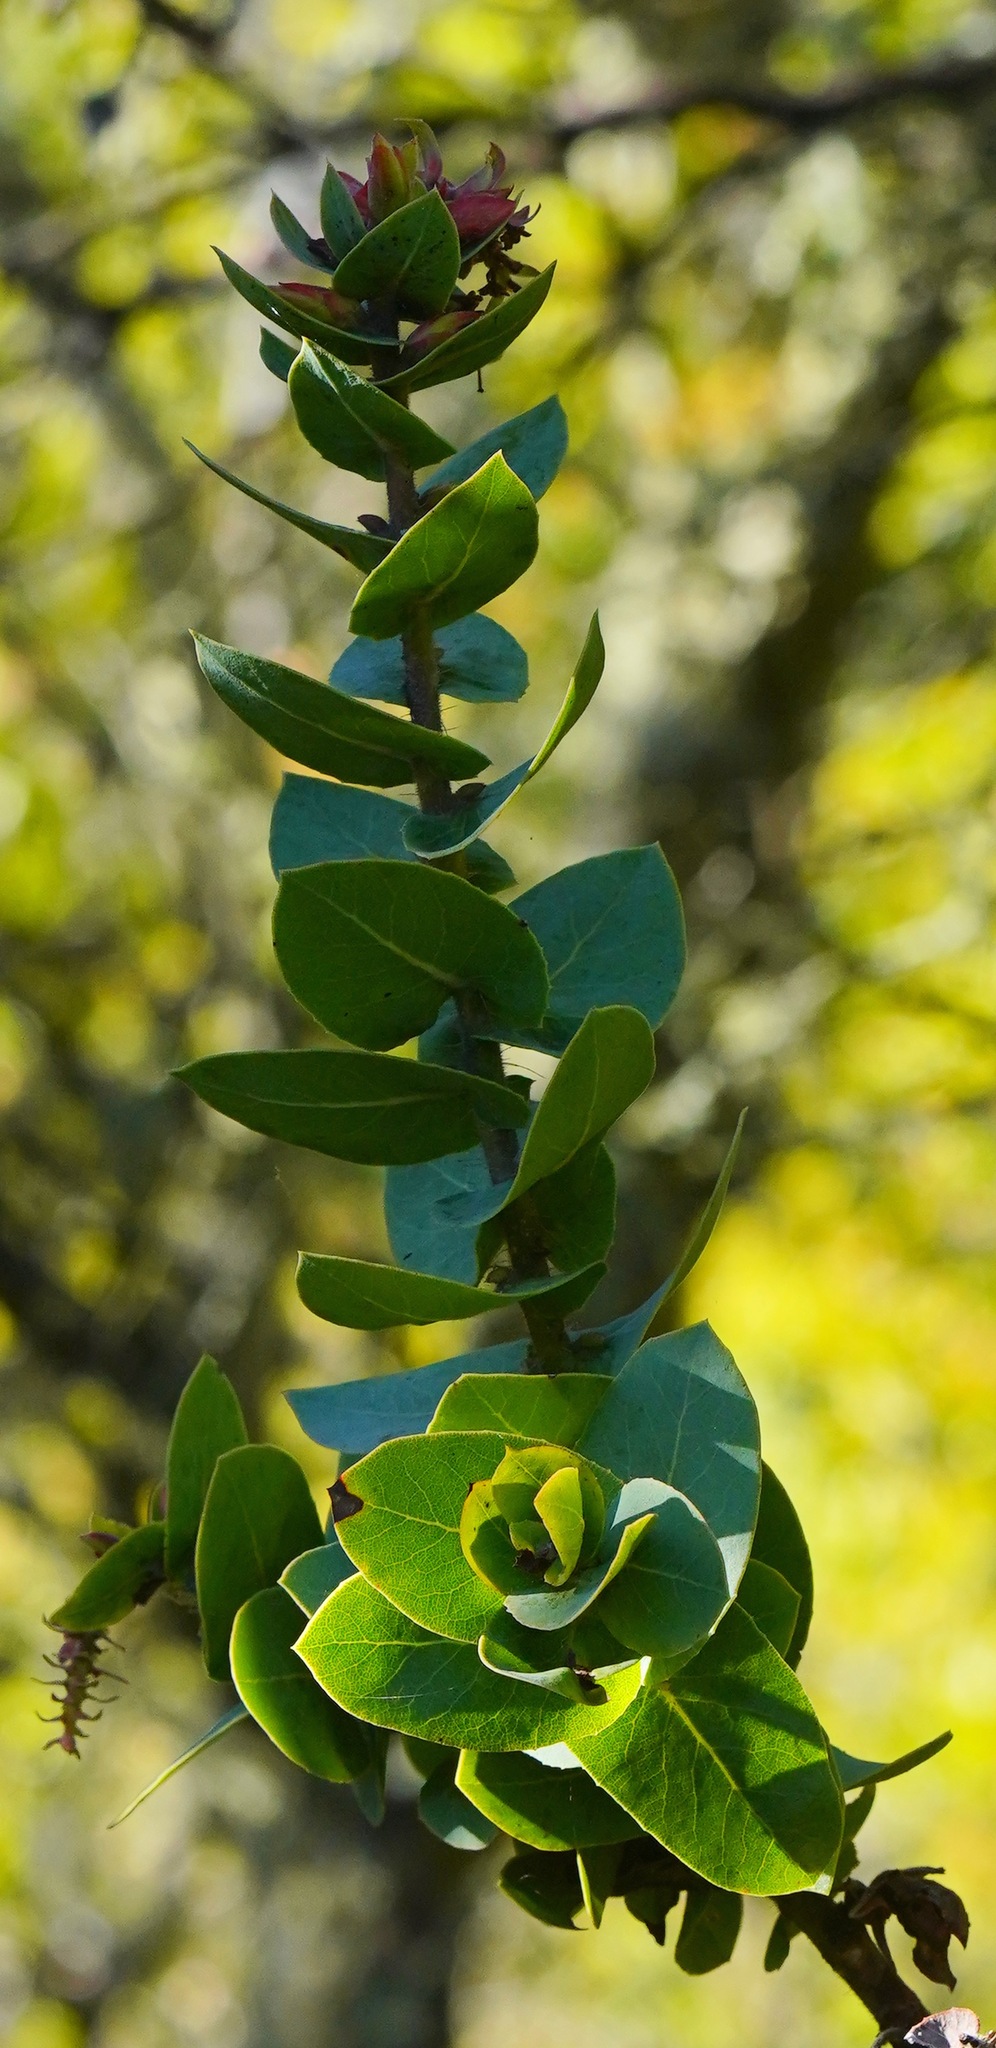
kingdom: Plantae
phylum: Tracheophyta
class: Magnoliopsida
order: Ericales
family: Ericaceae
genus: Arctostaphylos
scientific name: Arctostaphylos pallida
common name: Pallid manzanita
